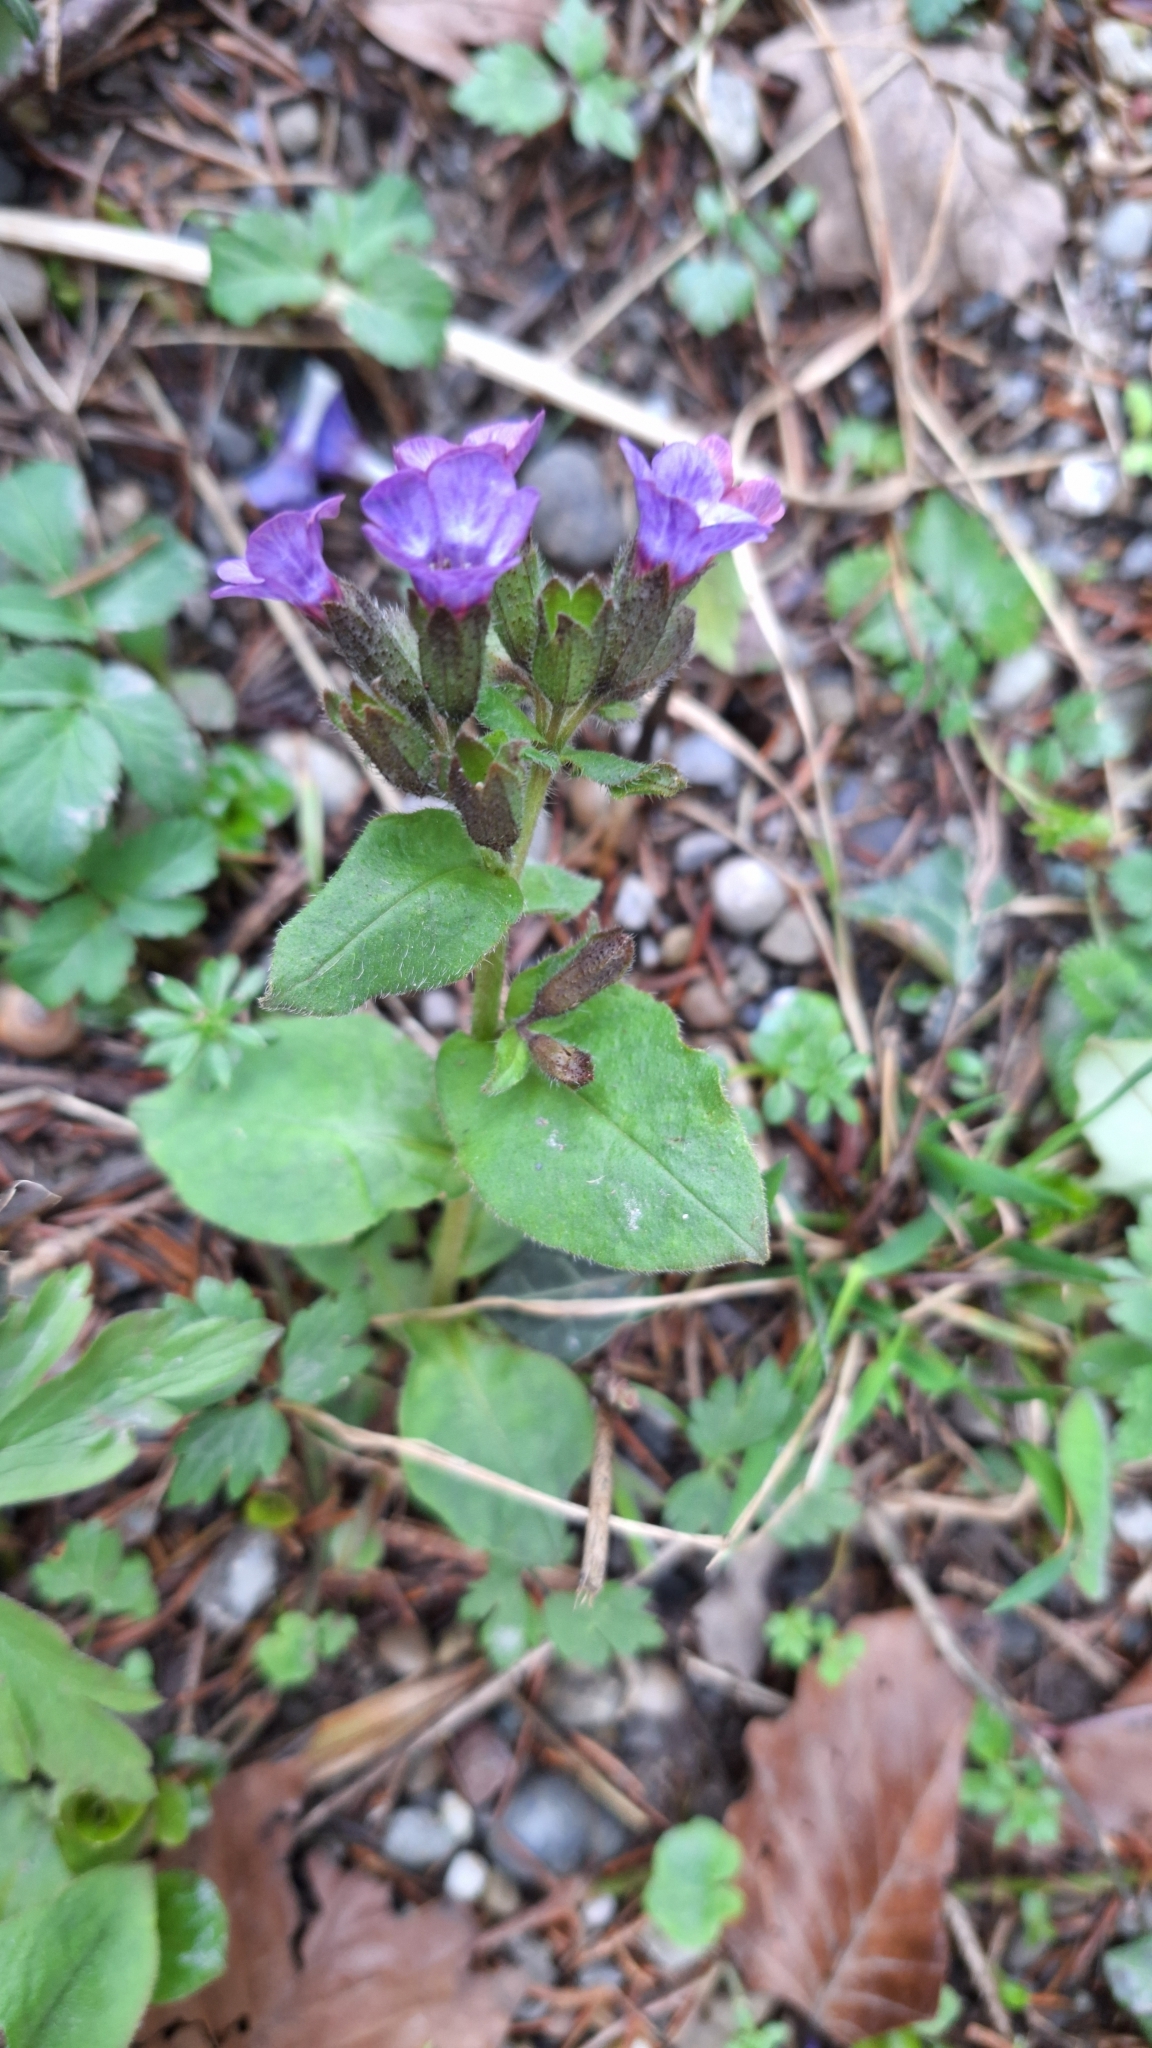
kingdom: Plantae
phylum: Tracheophyta
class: Magnoliopsida
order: Boraginales
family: Boraginaceae
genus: Pulmonaria
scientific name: Pulmonaria obscura
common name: Suffolk lungwort
